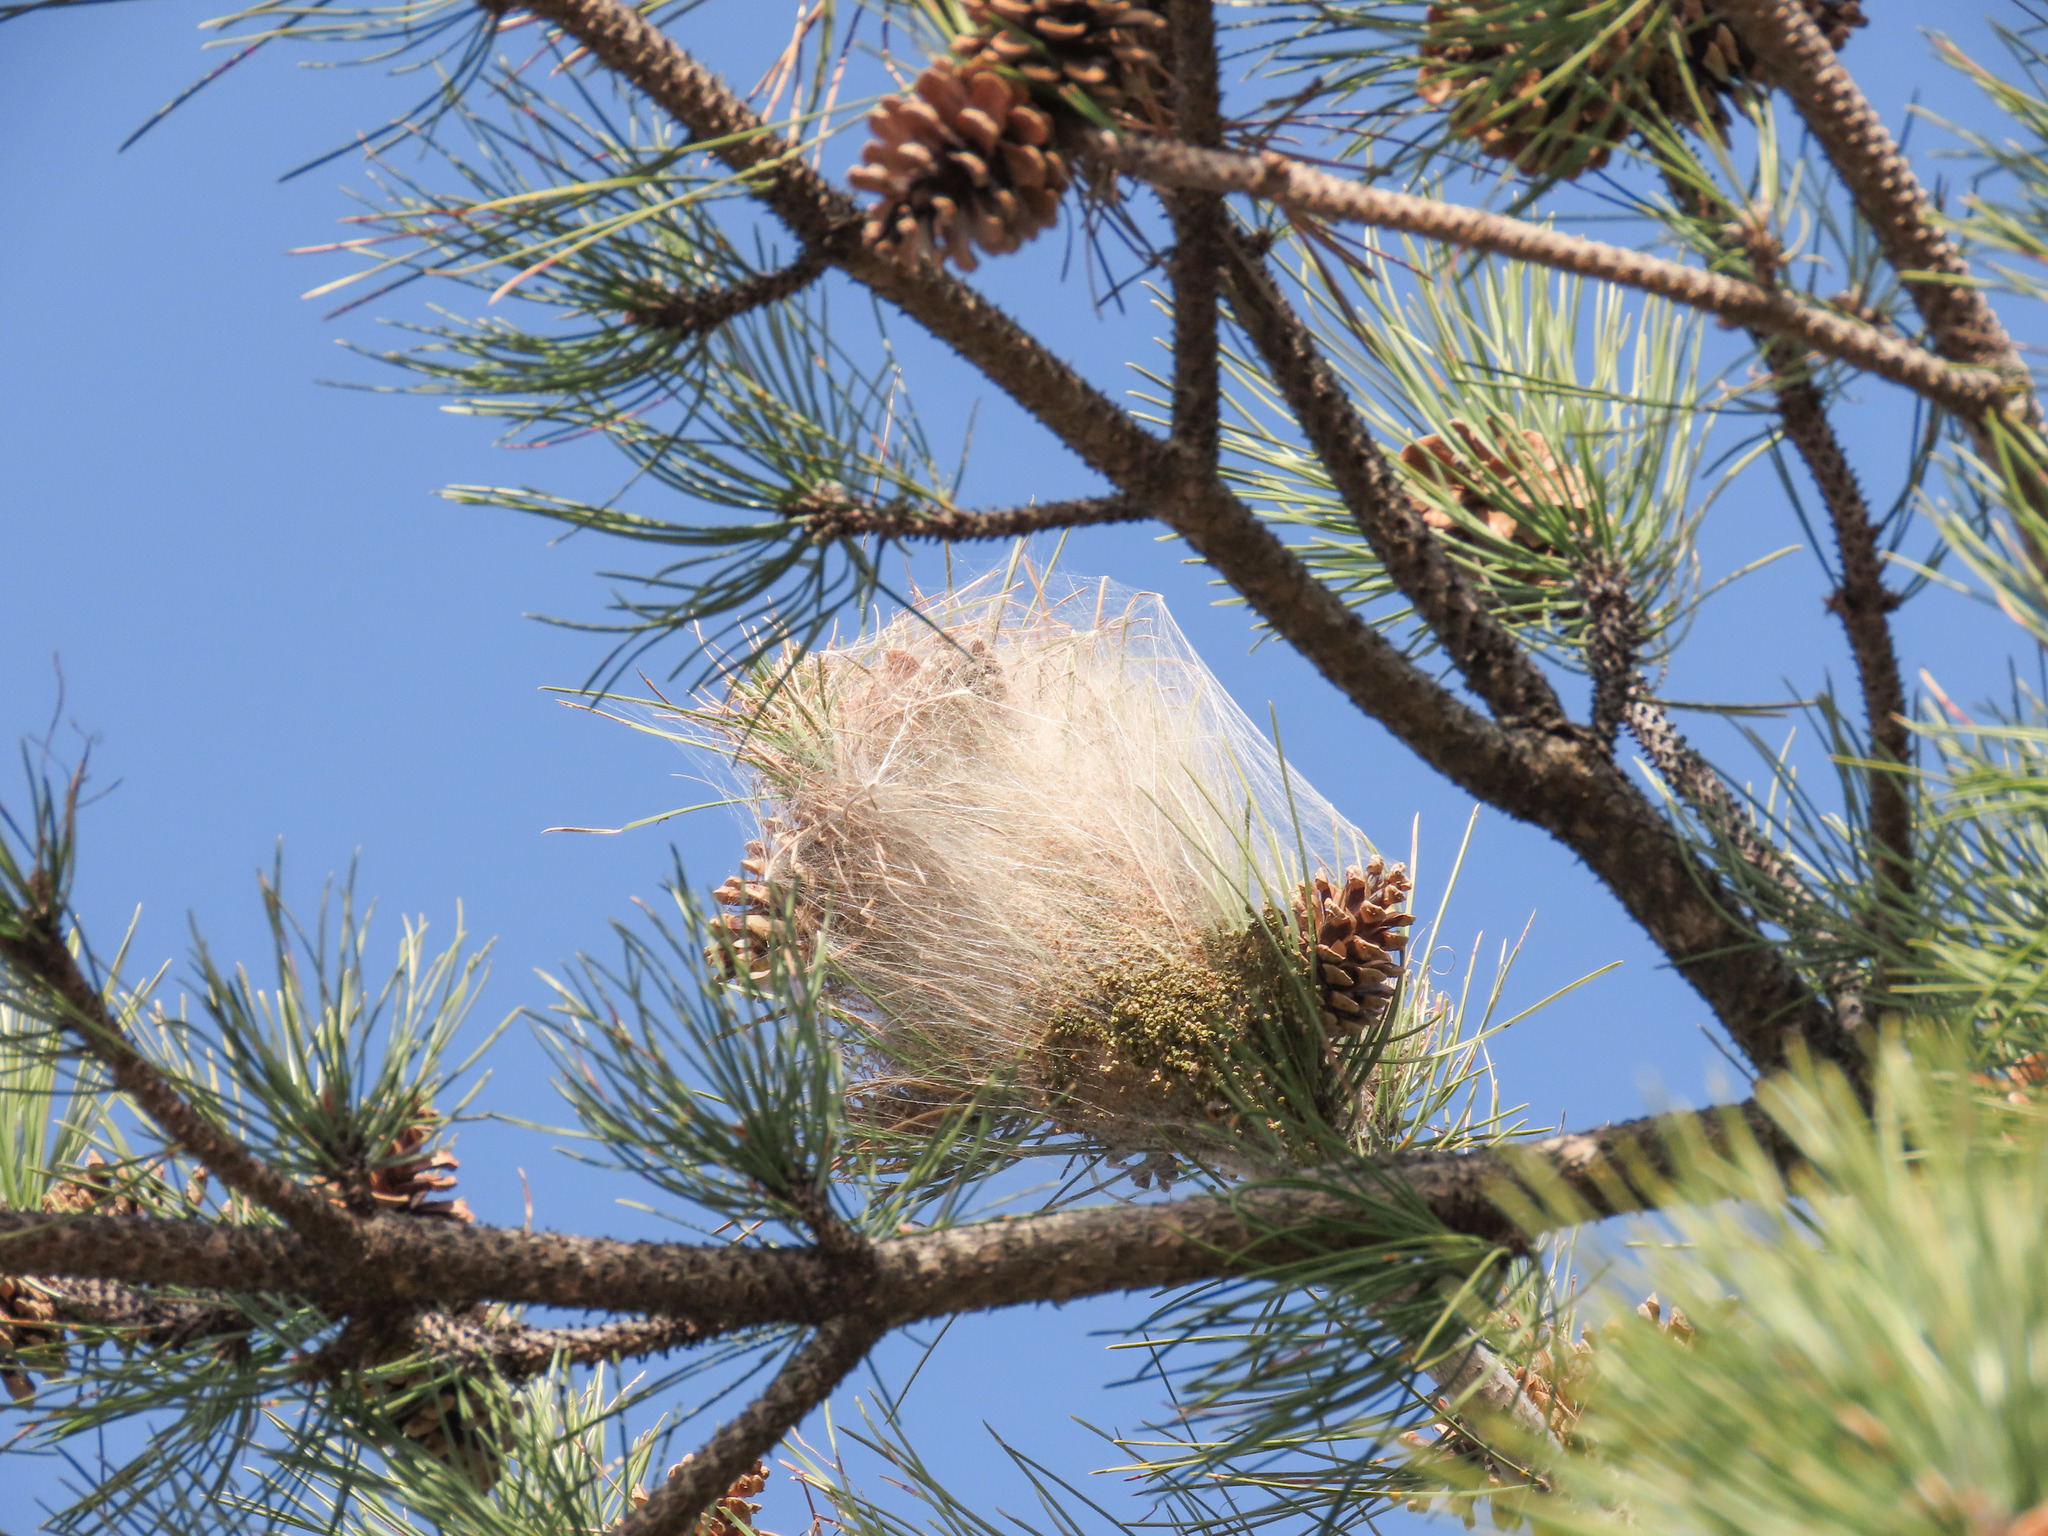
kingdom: Animalia
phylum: Arthropoda
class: Insecta
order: Lepidoptera
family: Notodontidae
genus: Thaumetopoea
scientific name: Thaumetopoea pityocampa
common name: Pine processionary
